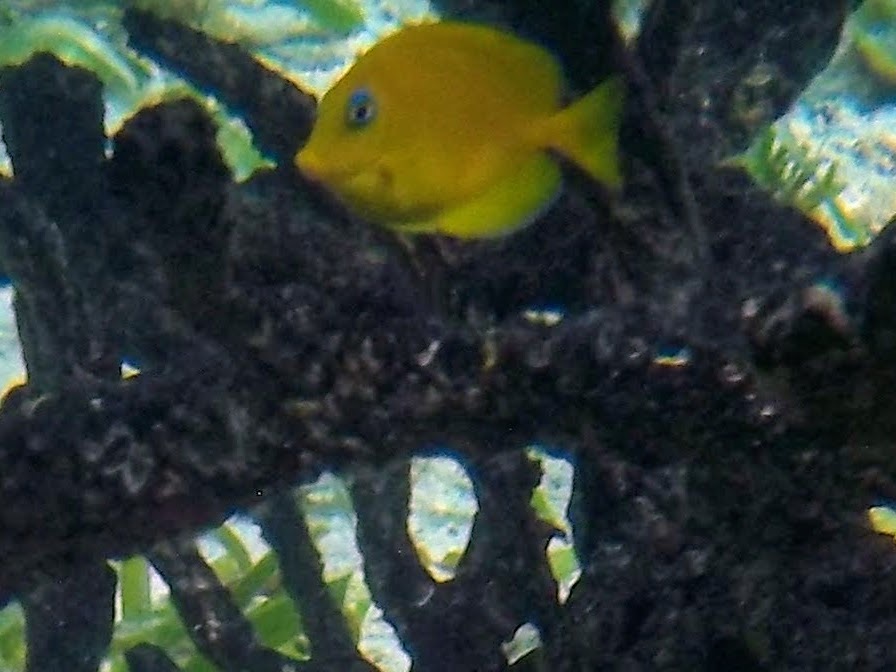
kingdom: Animalia
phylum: Chordata
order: Perciformes
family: Acanthuridae
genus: Acanthurus
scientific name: Acanthurus coeruleus
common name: Blue tang
